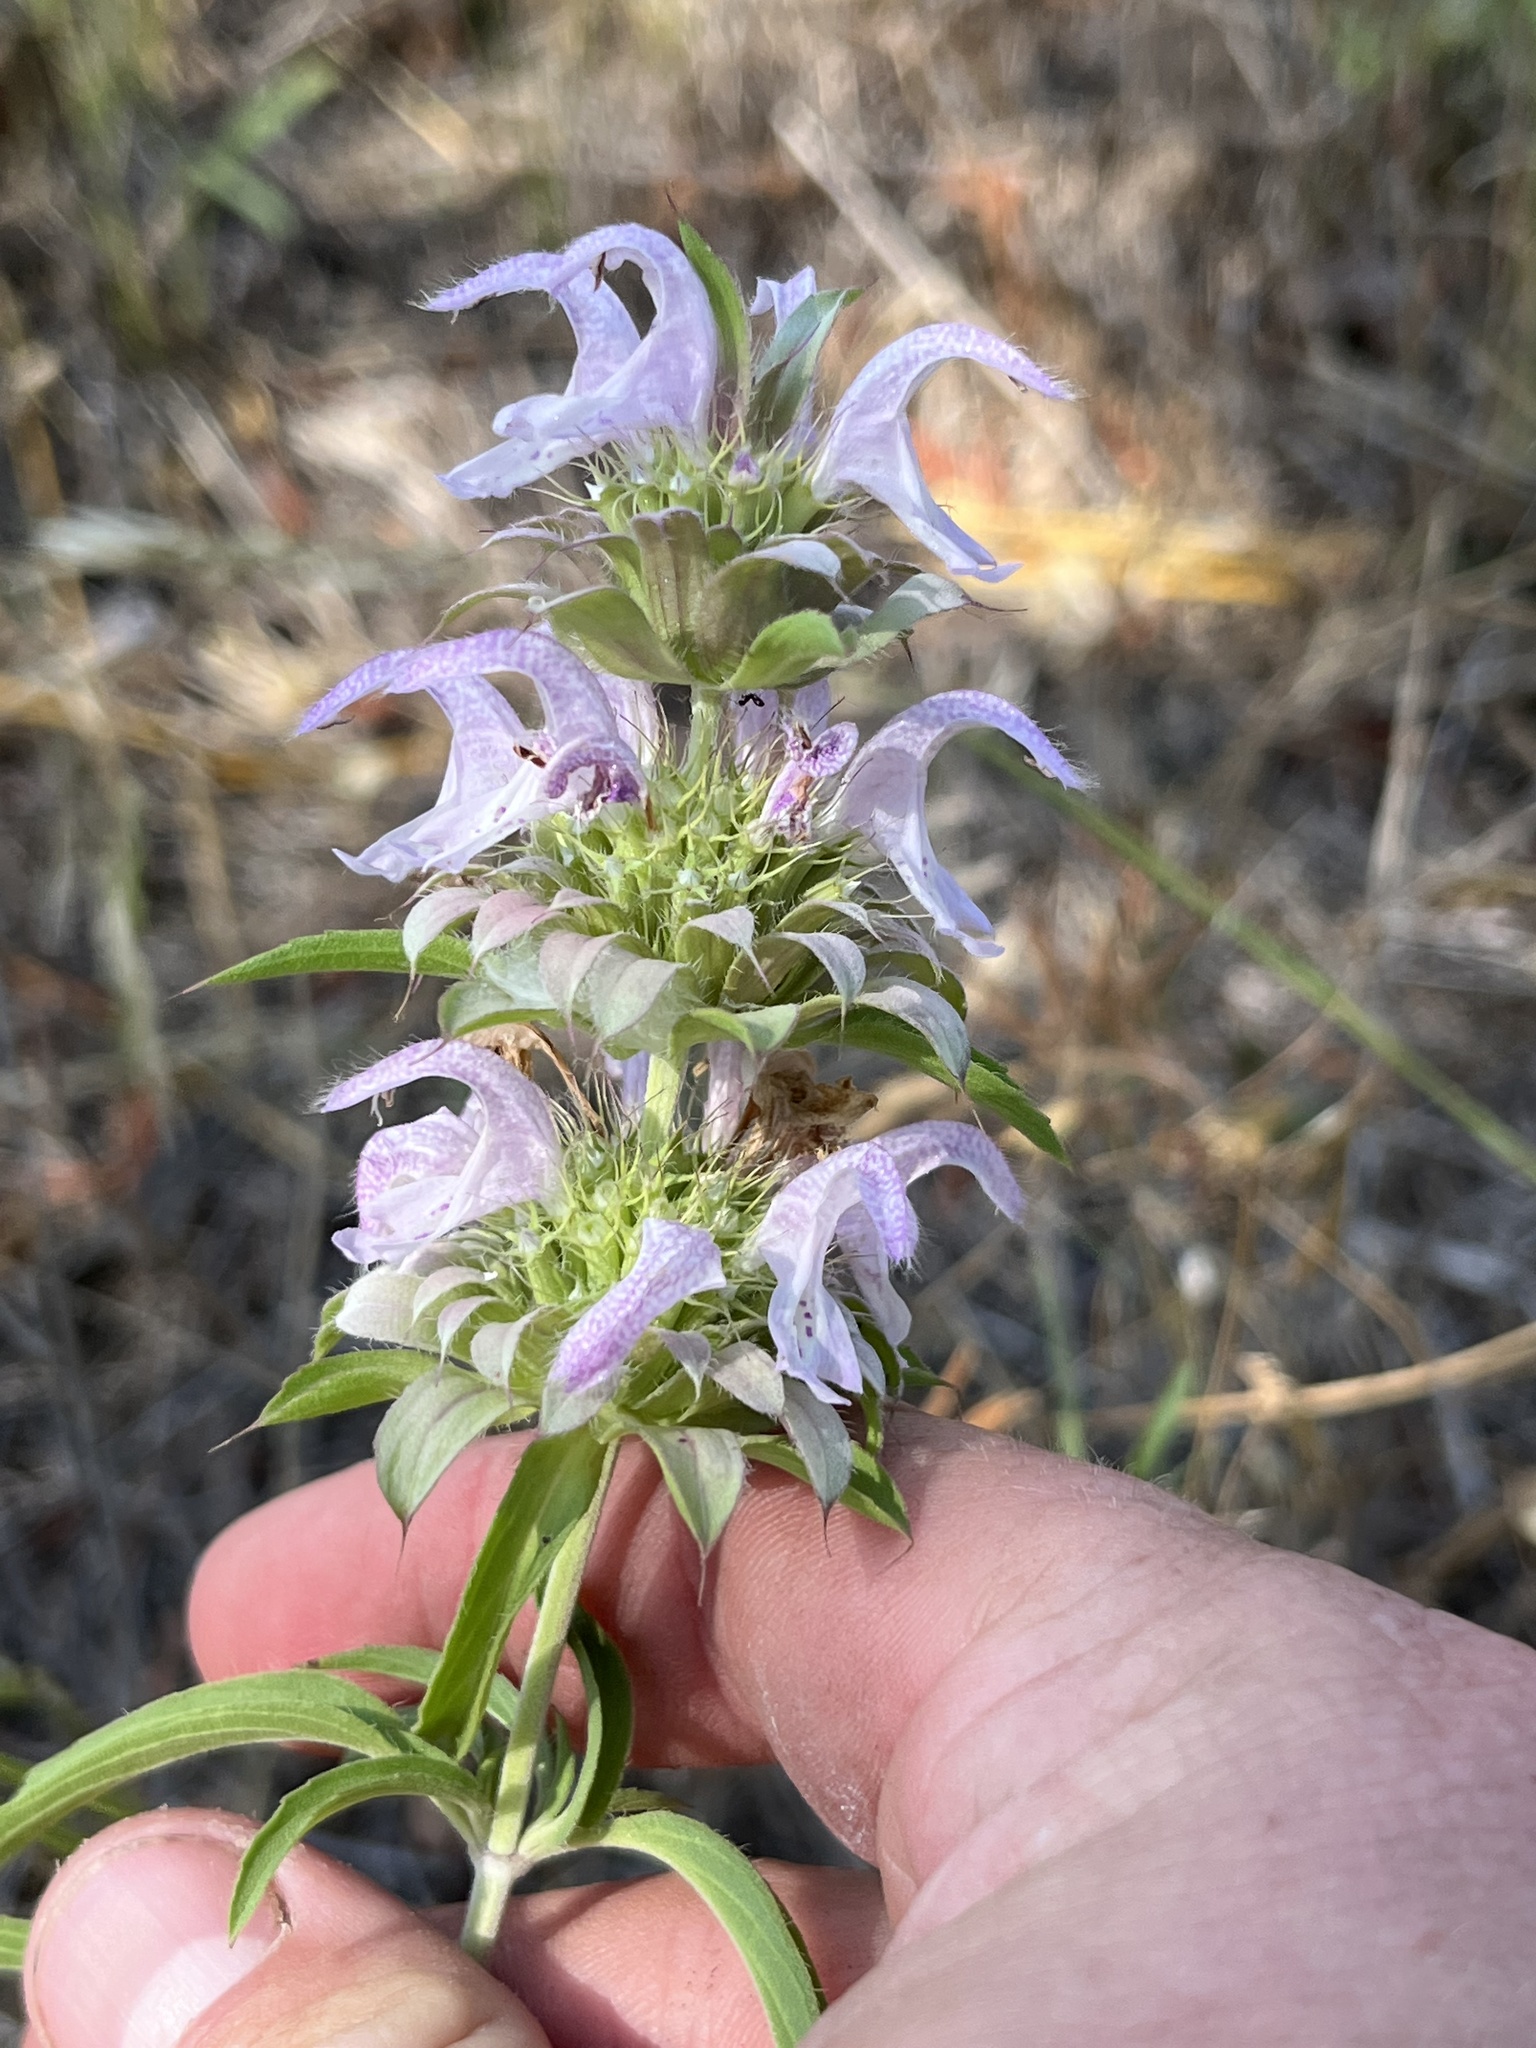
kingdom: Plantae
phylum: Tracheophyta
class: Magnoliopsida
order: Lamiales
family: Lamiaceae
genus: Monarda
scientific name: Monarda citriodora
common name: Lemon beebalm
